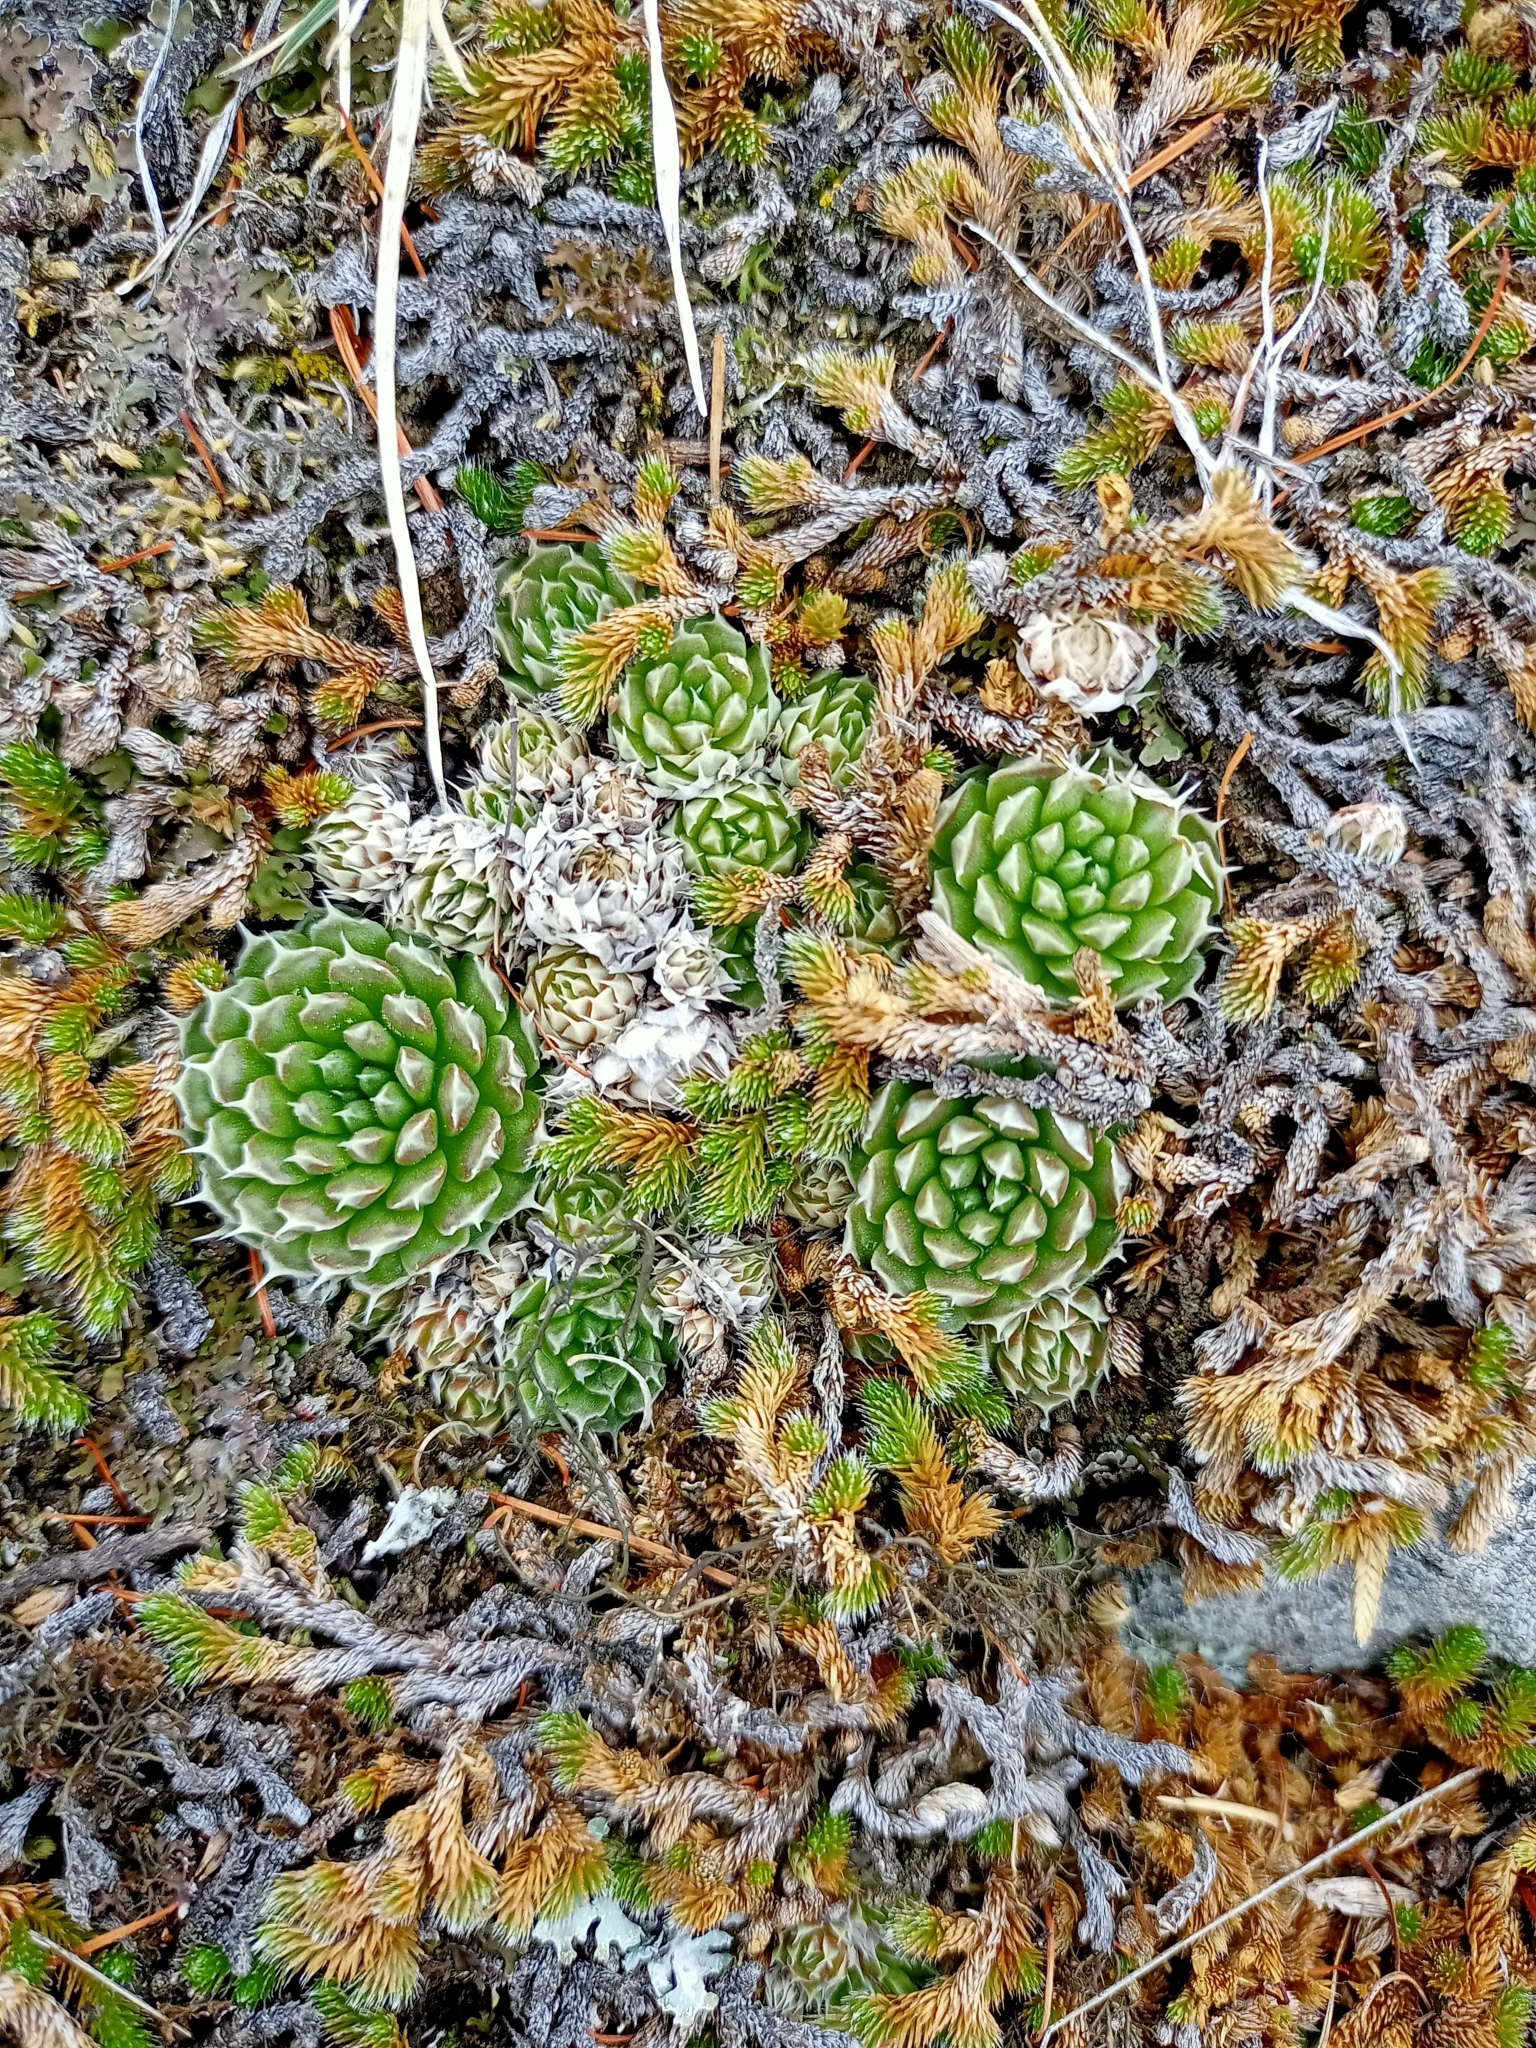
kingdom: Plantae
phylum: Tracheophyta
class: Magnoliopsida
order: Saxifragales
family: Crassulaceae
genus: Orostachys
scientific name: Orostachys spinosa
